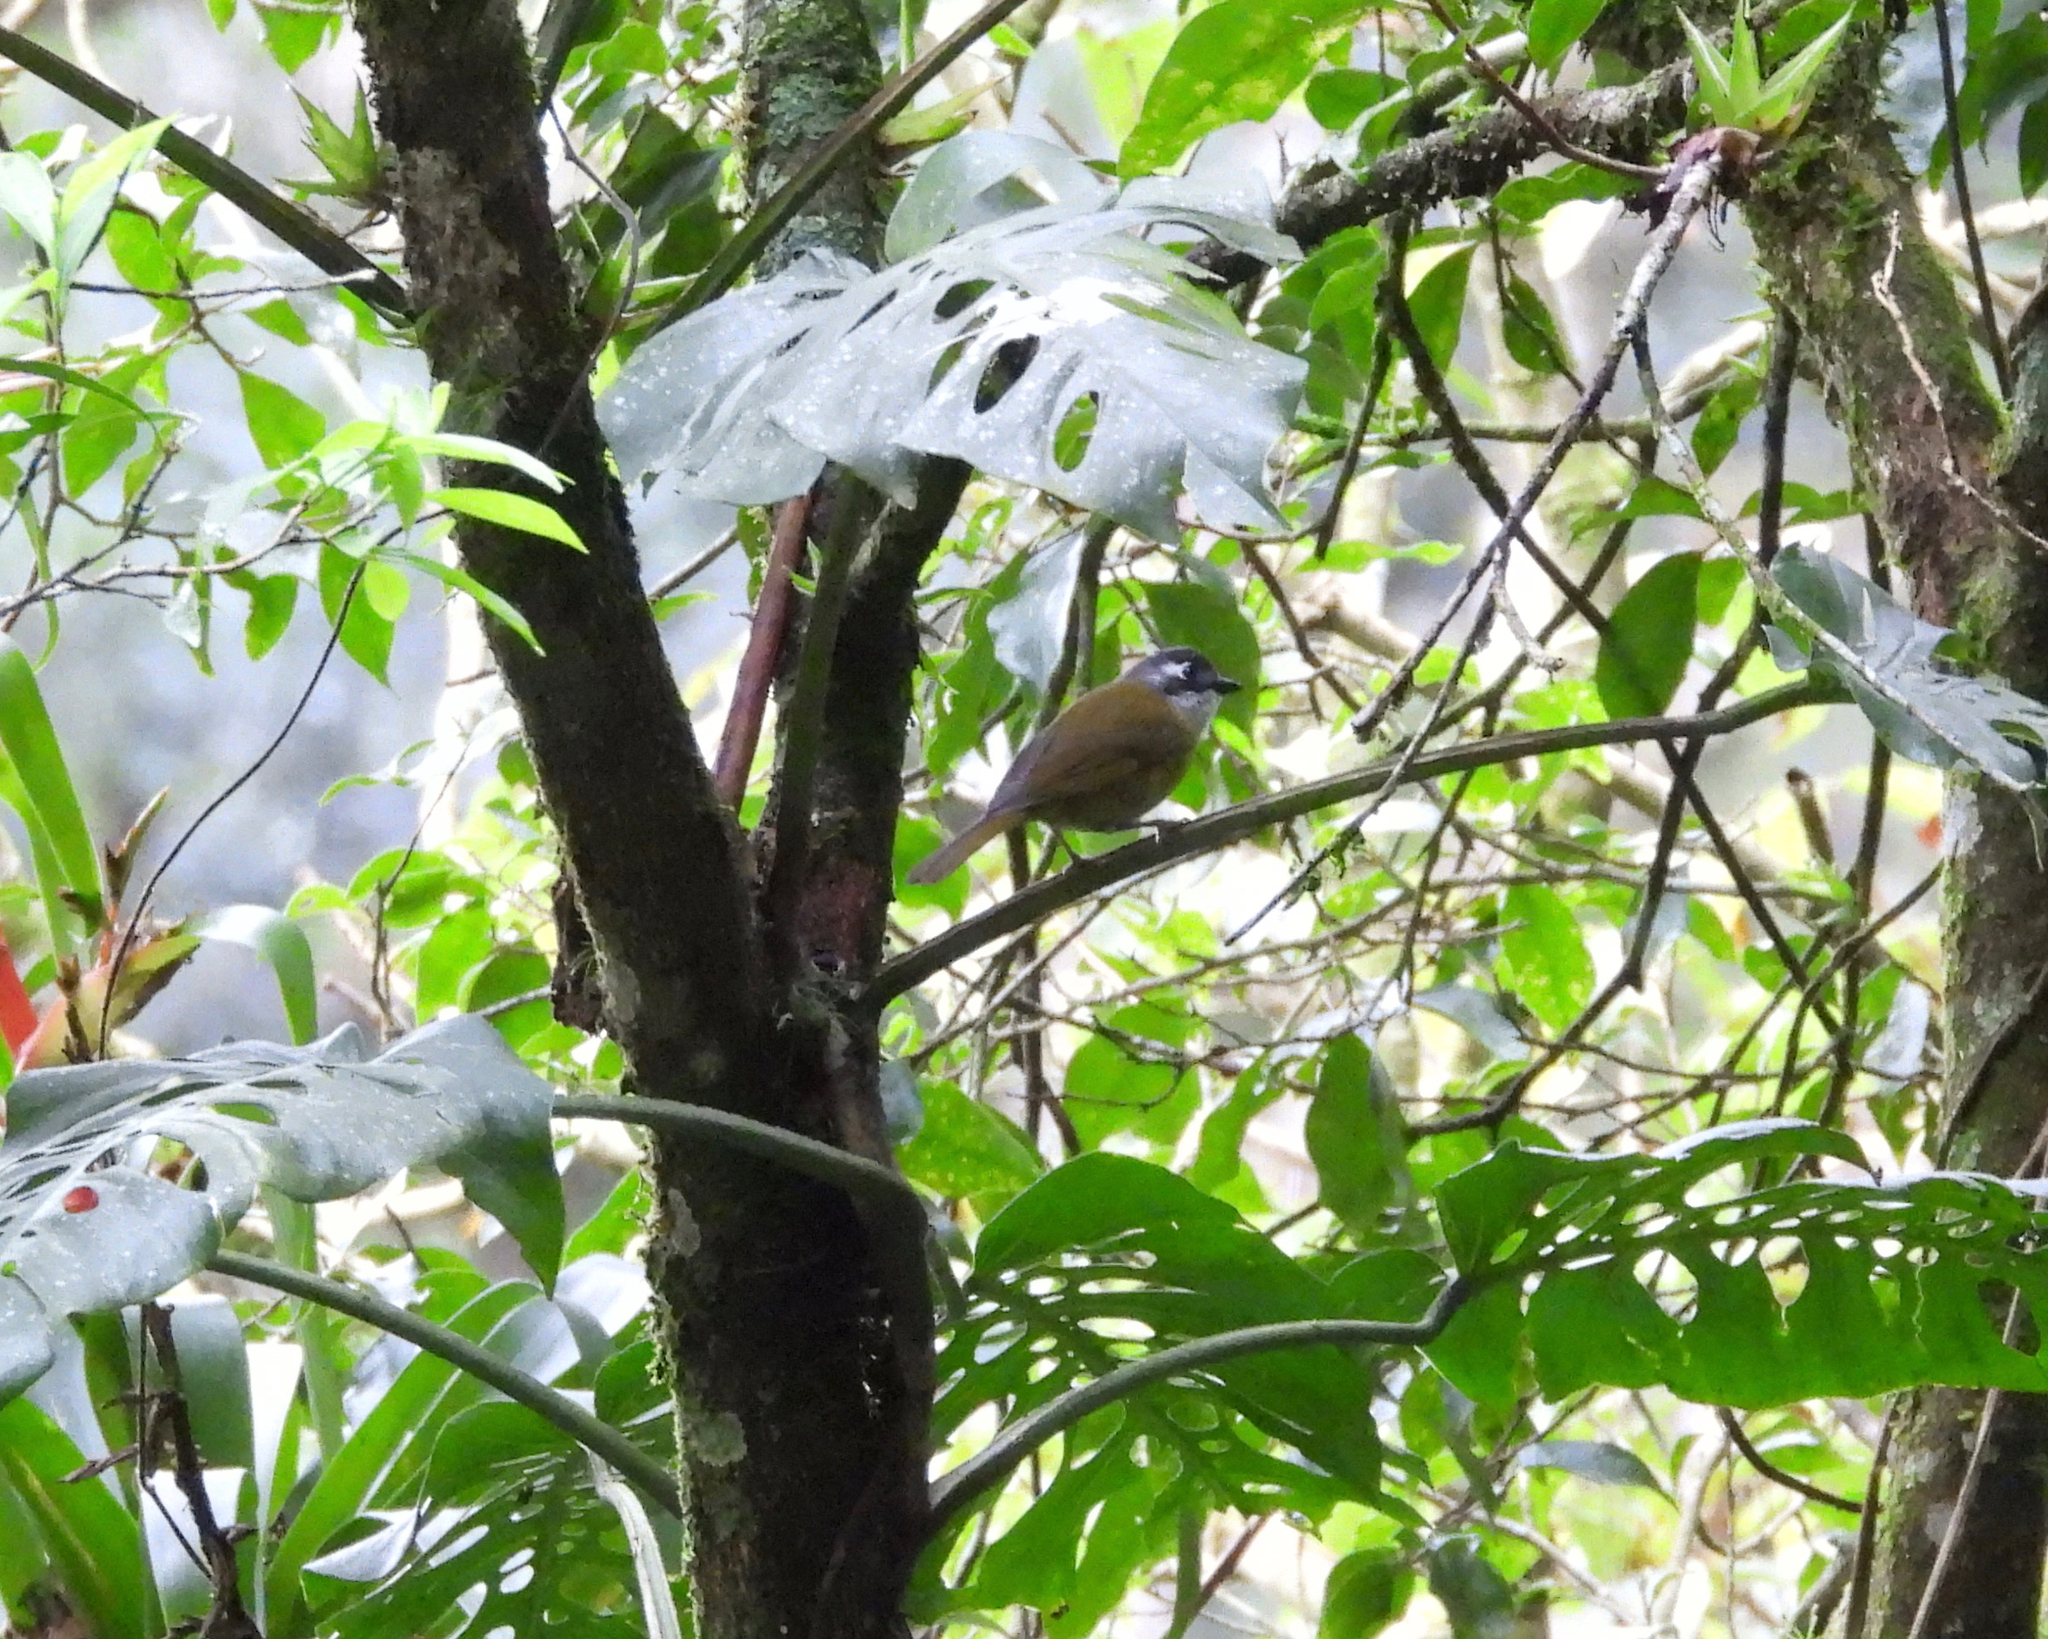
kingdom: Animalia
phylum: Chordata
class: Aves
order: Passeriformes
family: Passerellidae
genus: Chlorospingus
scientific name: Chlorospingus flavopectus
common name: Common chlorospingus
